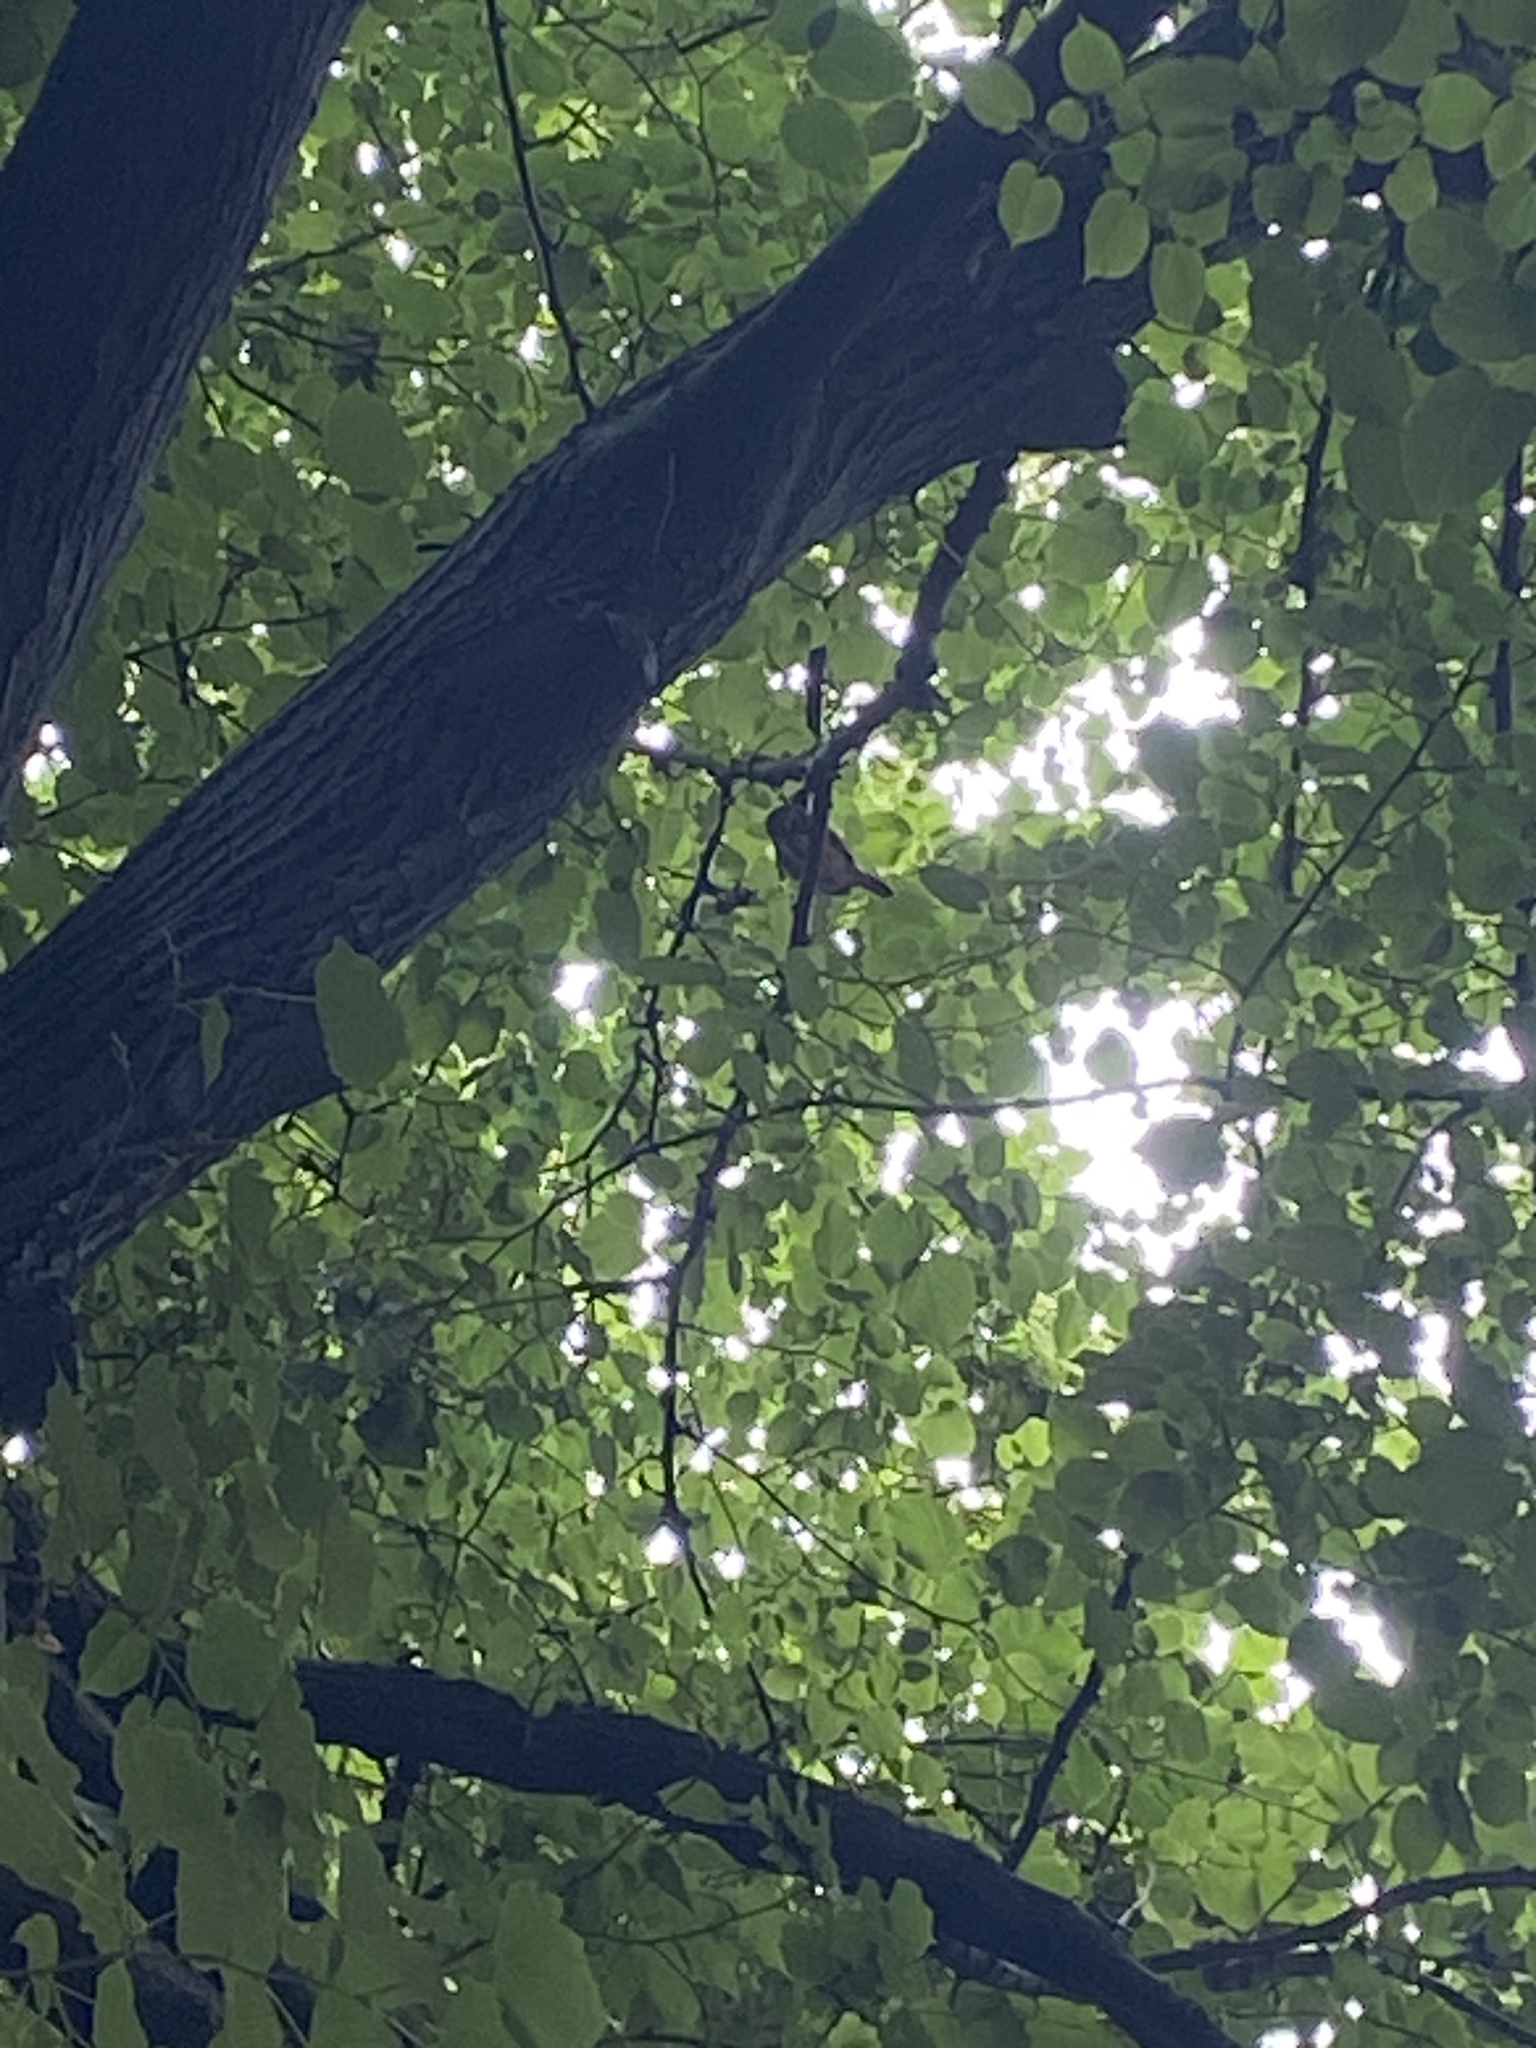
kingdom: Animalia
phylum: Chordata
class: Aves
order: Strigiformes
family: Strigidae
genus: Glaucidium
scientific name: Glaucidium brasilianum
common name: Ferruginous pygmy-owl
